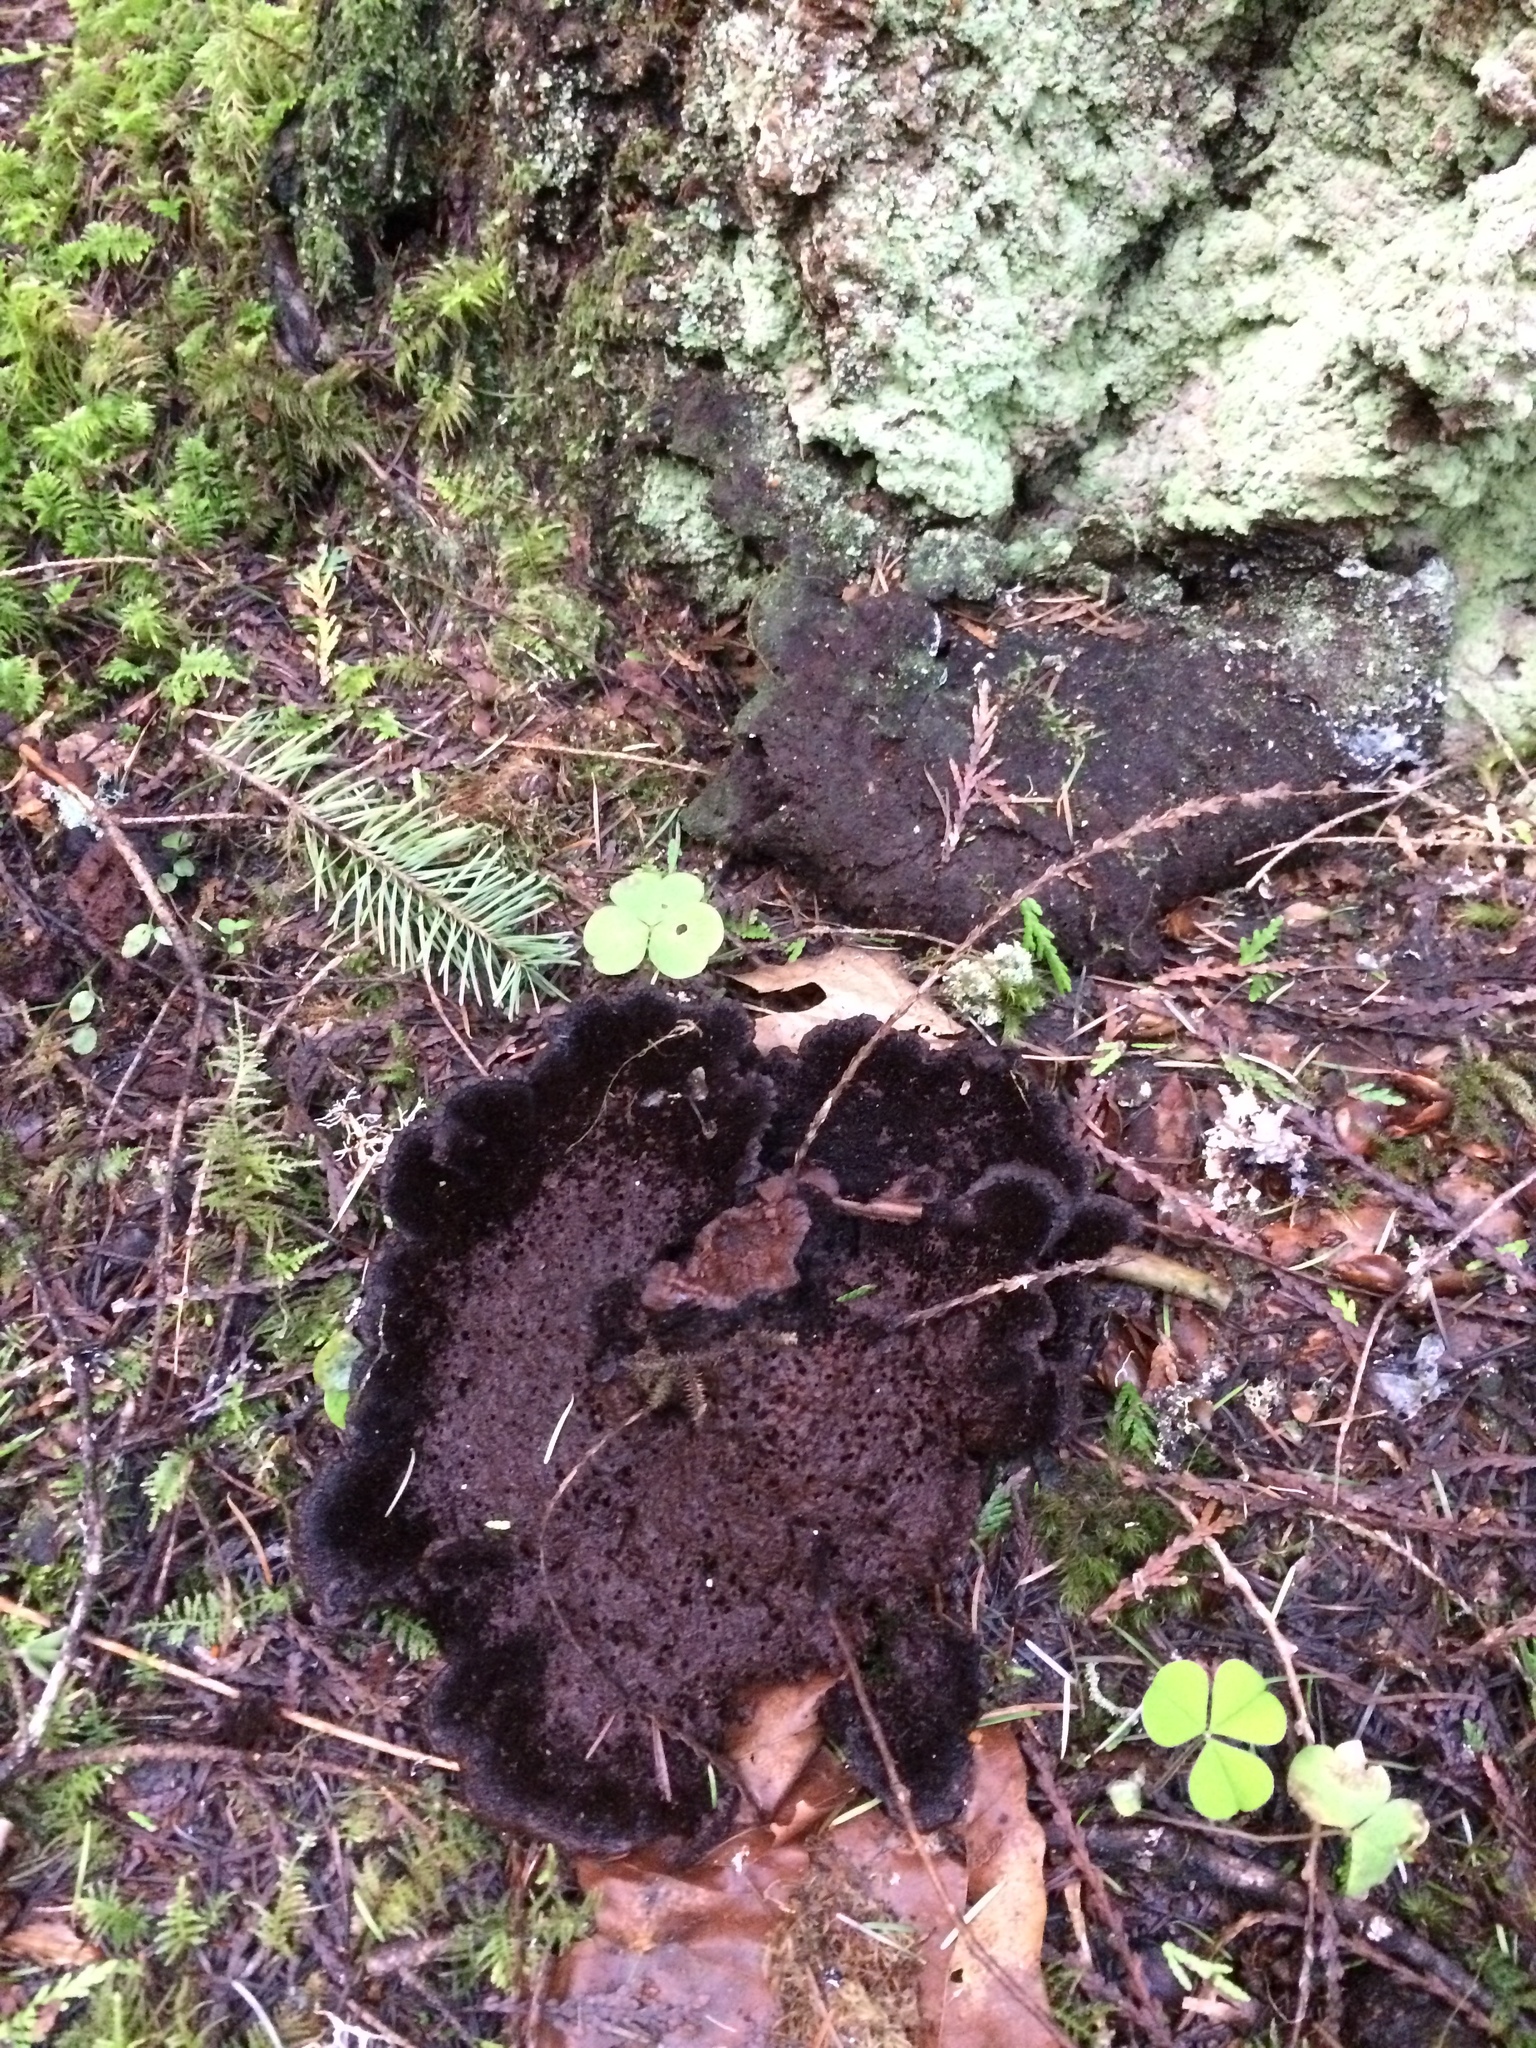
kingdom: Fungi
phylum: Basidiomycota
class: Agaricomycetes
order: Polyporales
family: Laetiporaceae
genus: Phaeolus
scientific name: Phaeolus schweinitzii
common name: Dyer's mazegill
